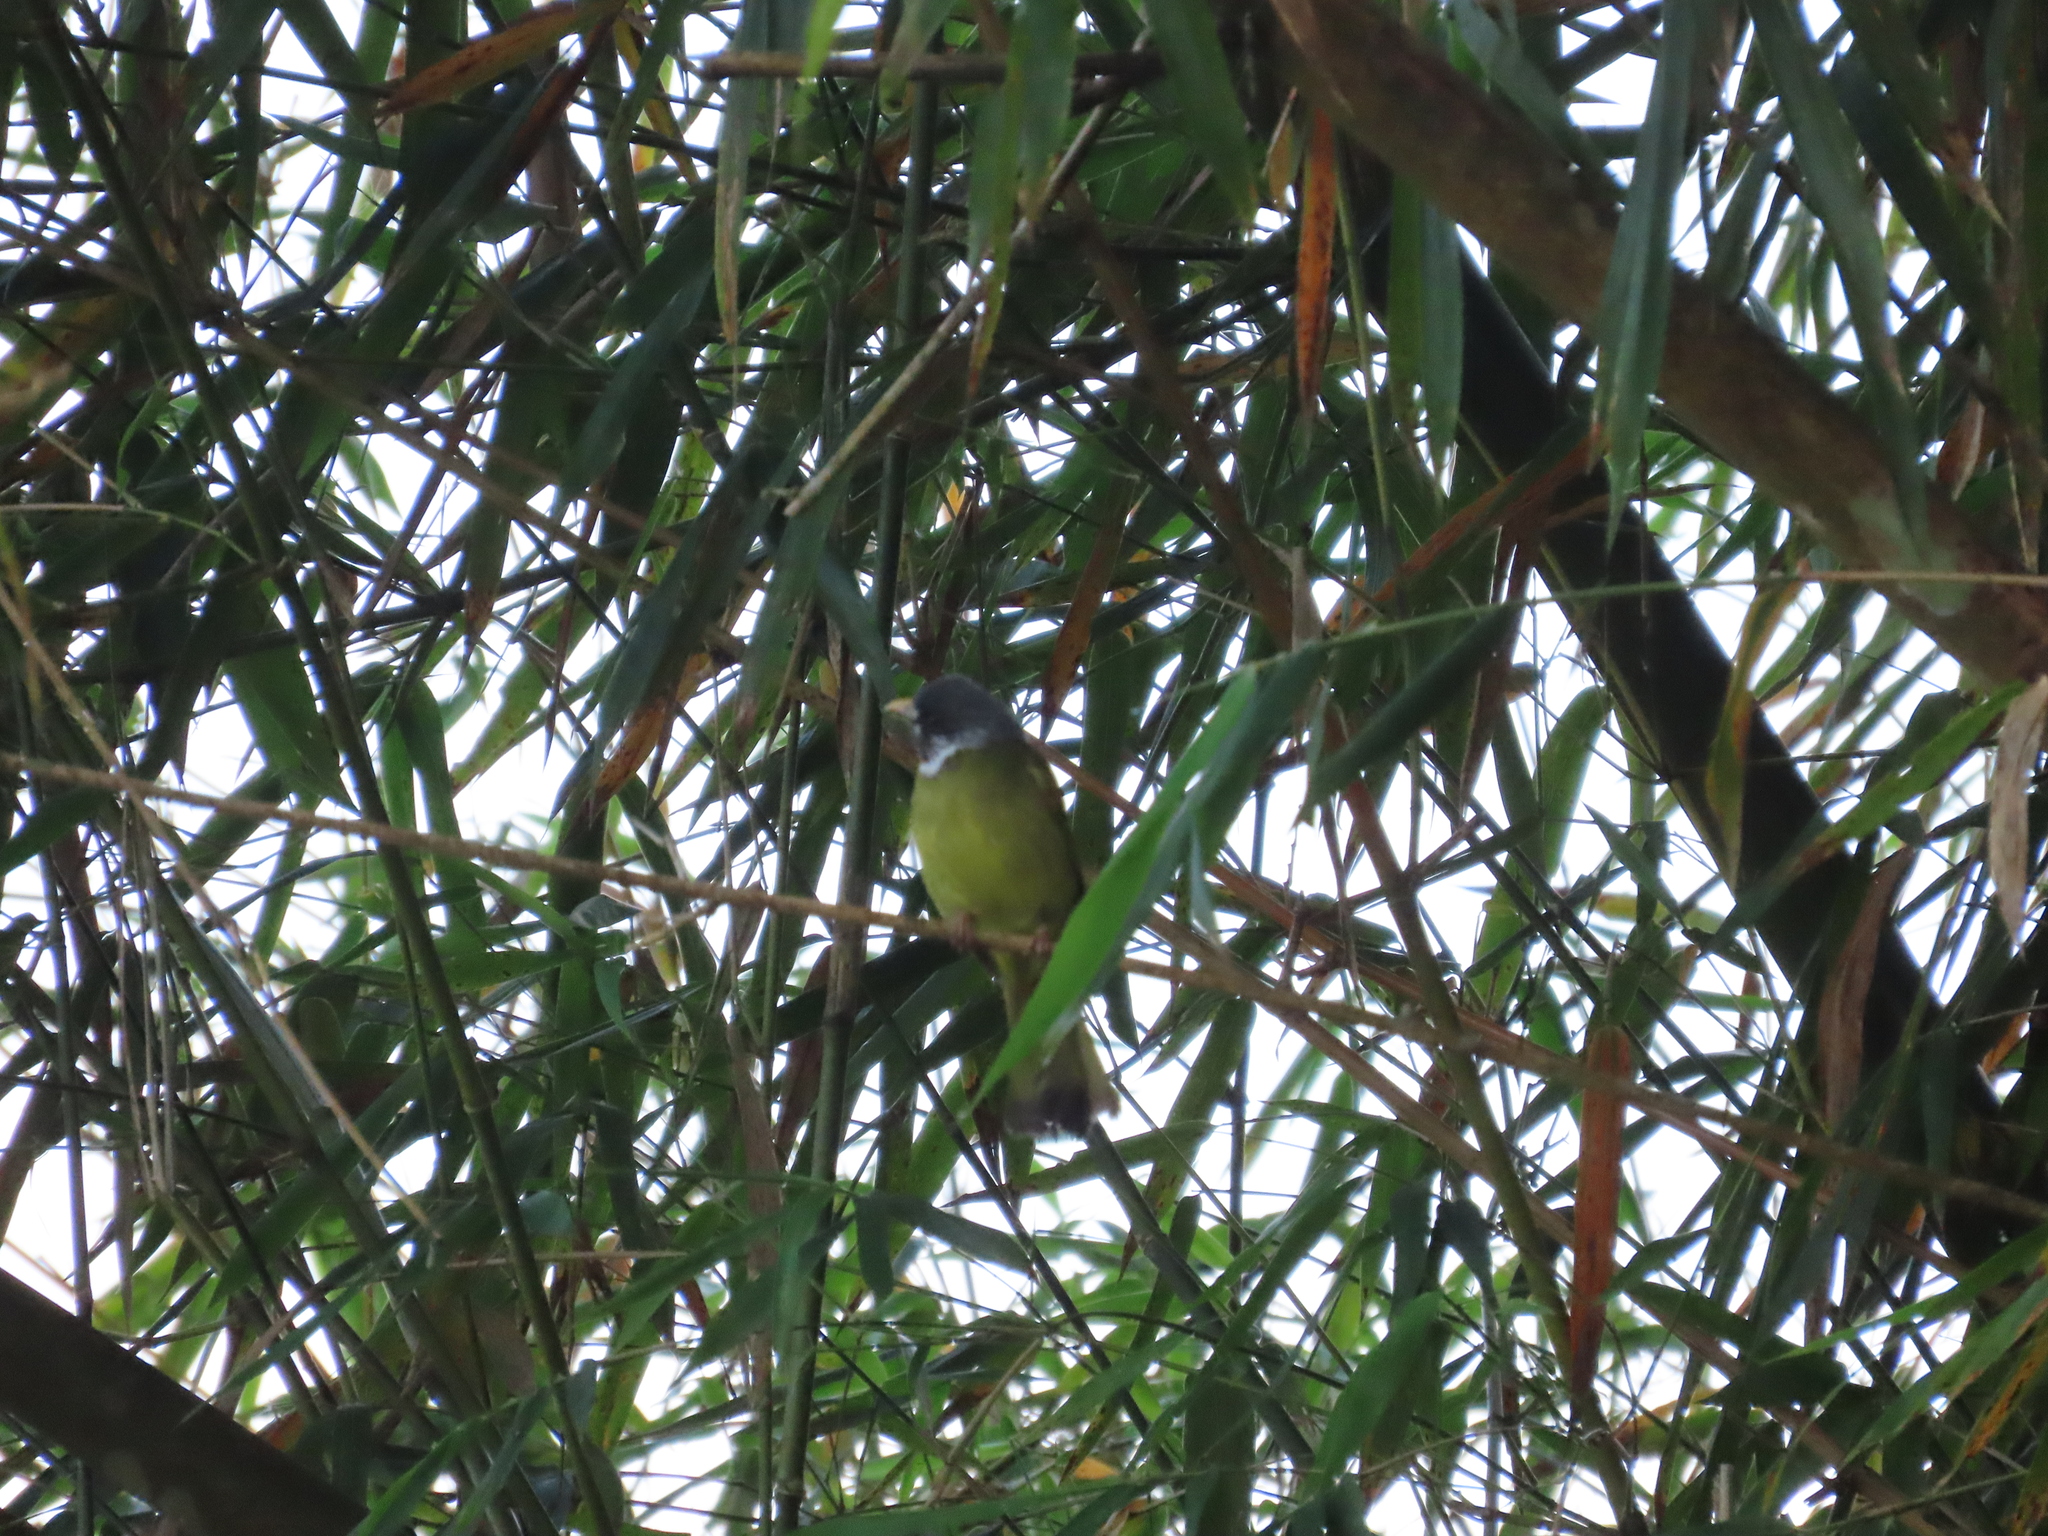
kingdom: Animalia
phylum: Chordata
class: Aves
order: Passeriformes
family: Pycnonotidae
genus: Spizixos
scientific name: Spizixos semitorques
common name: Collared finchbill
